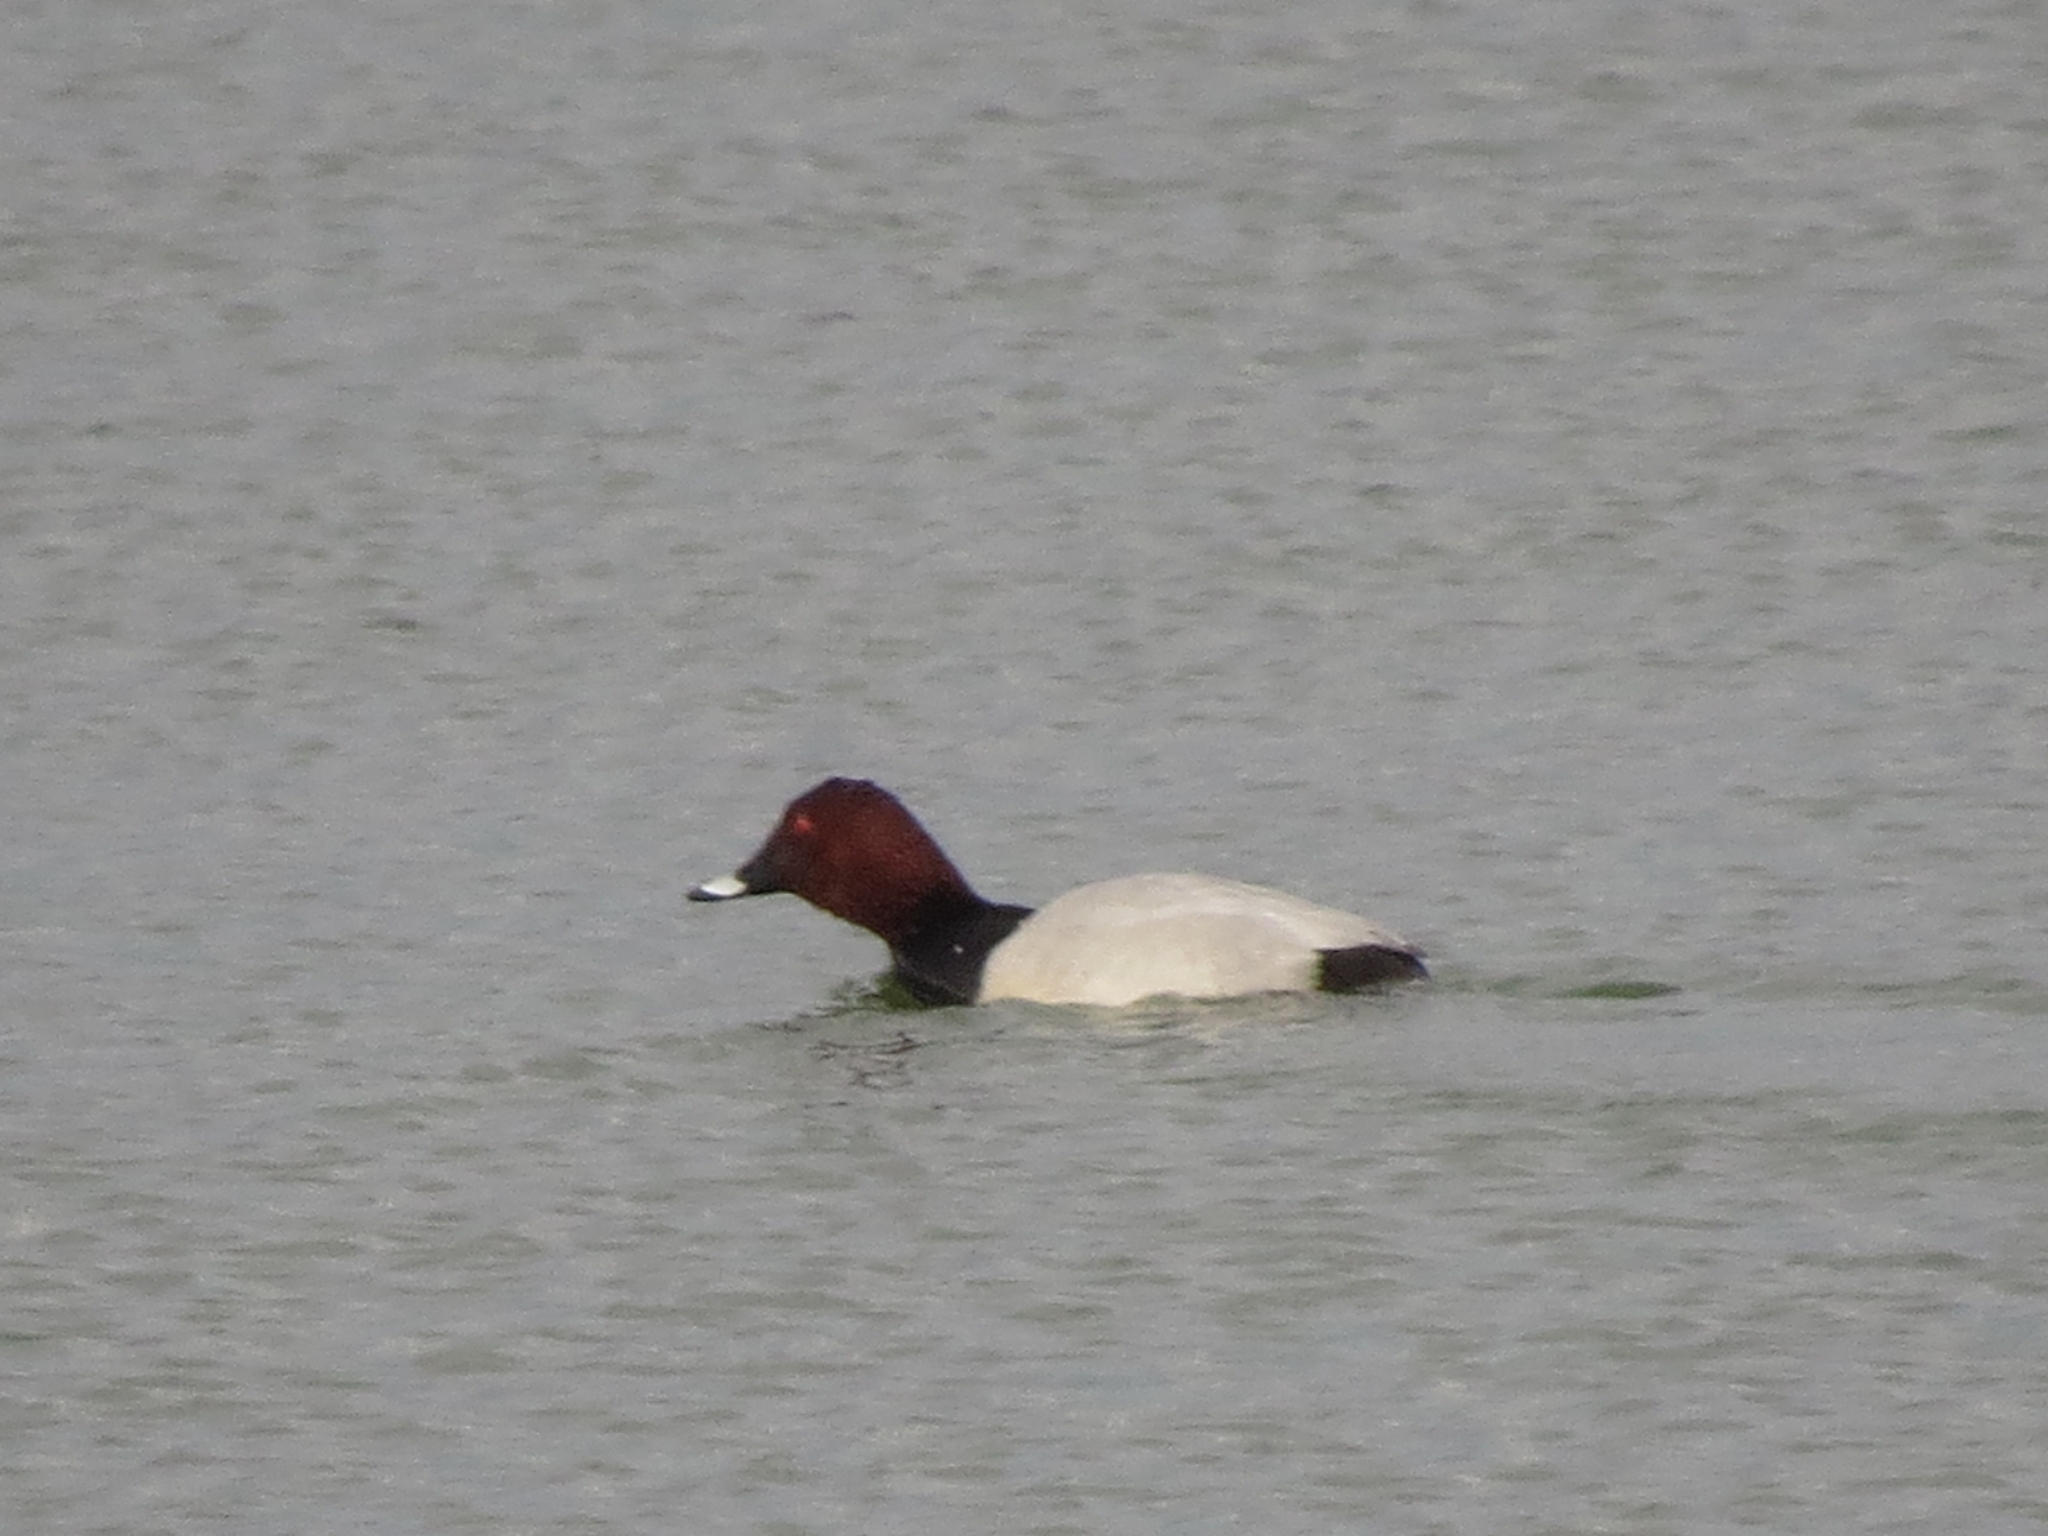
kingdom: Animalia
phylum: Chordata
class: Aves
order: Anseriformes
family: Anatidae
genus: Aythya
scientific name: Aythya ferina
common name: Common pochard
